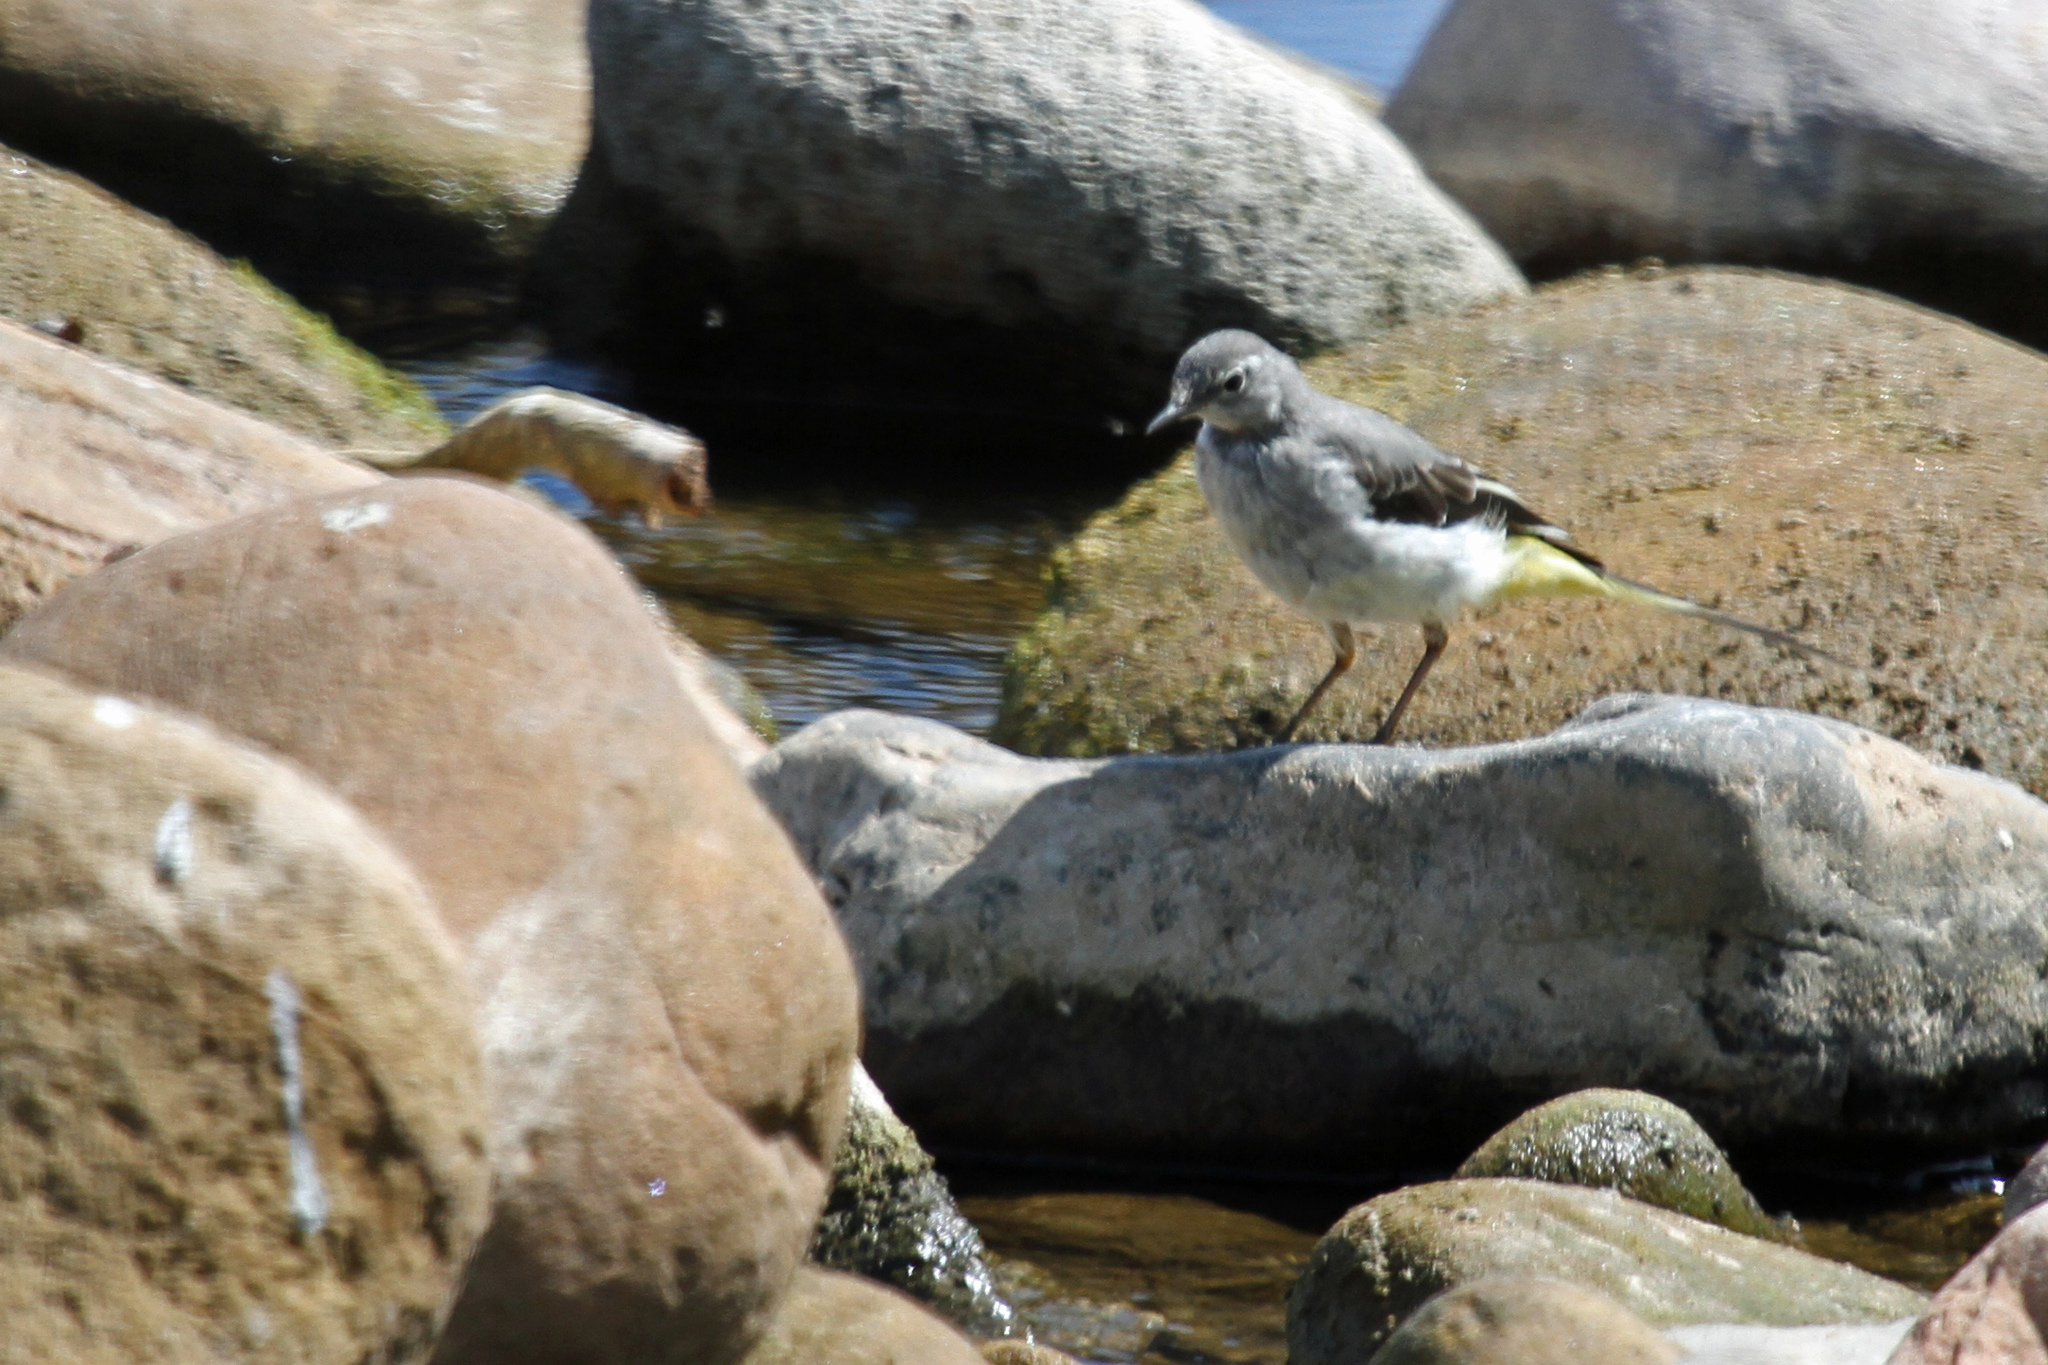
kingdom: Animalia
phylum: Chordata
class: Aves
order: Passeriformes
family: Motacillidae
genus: Motacilla
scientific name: Motacilla cinerea
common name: Grey wagtail
